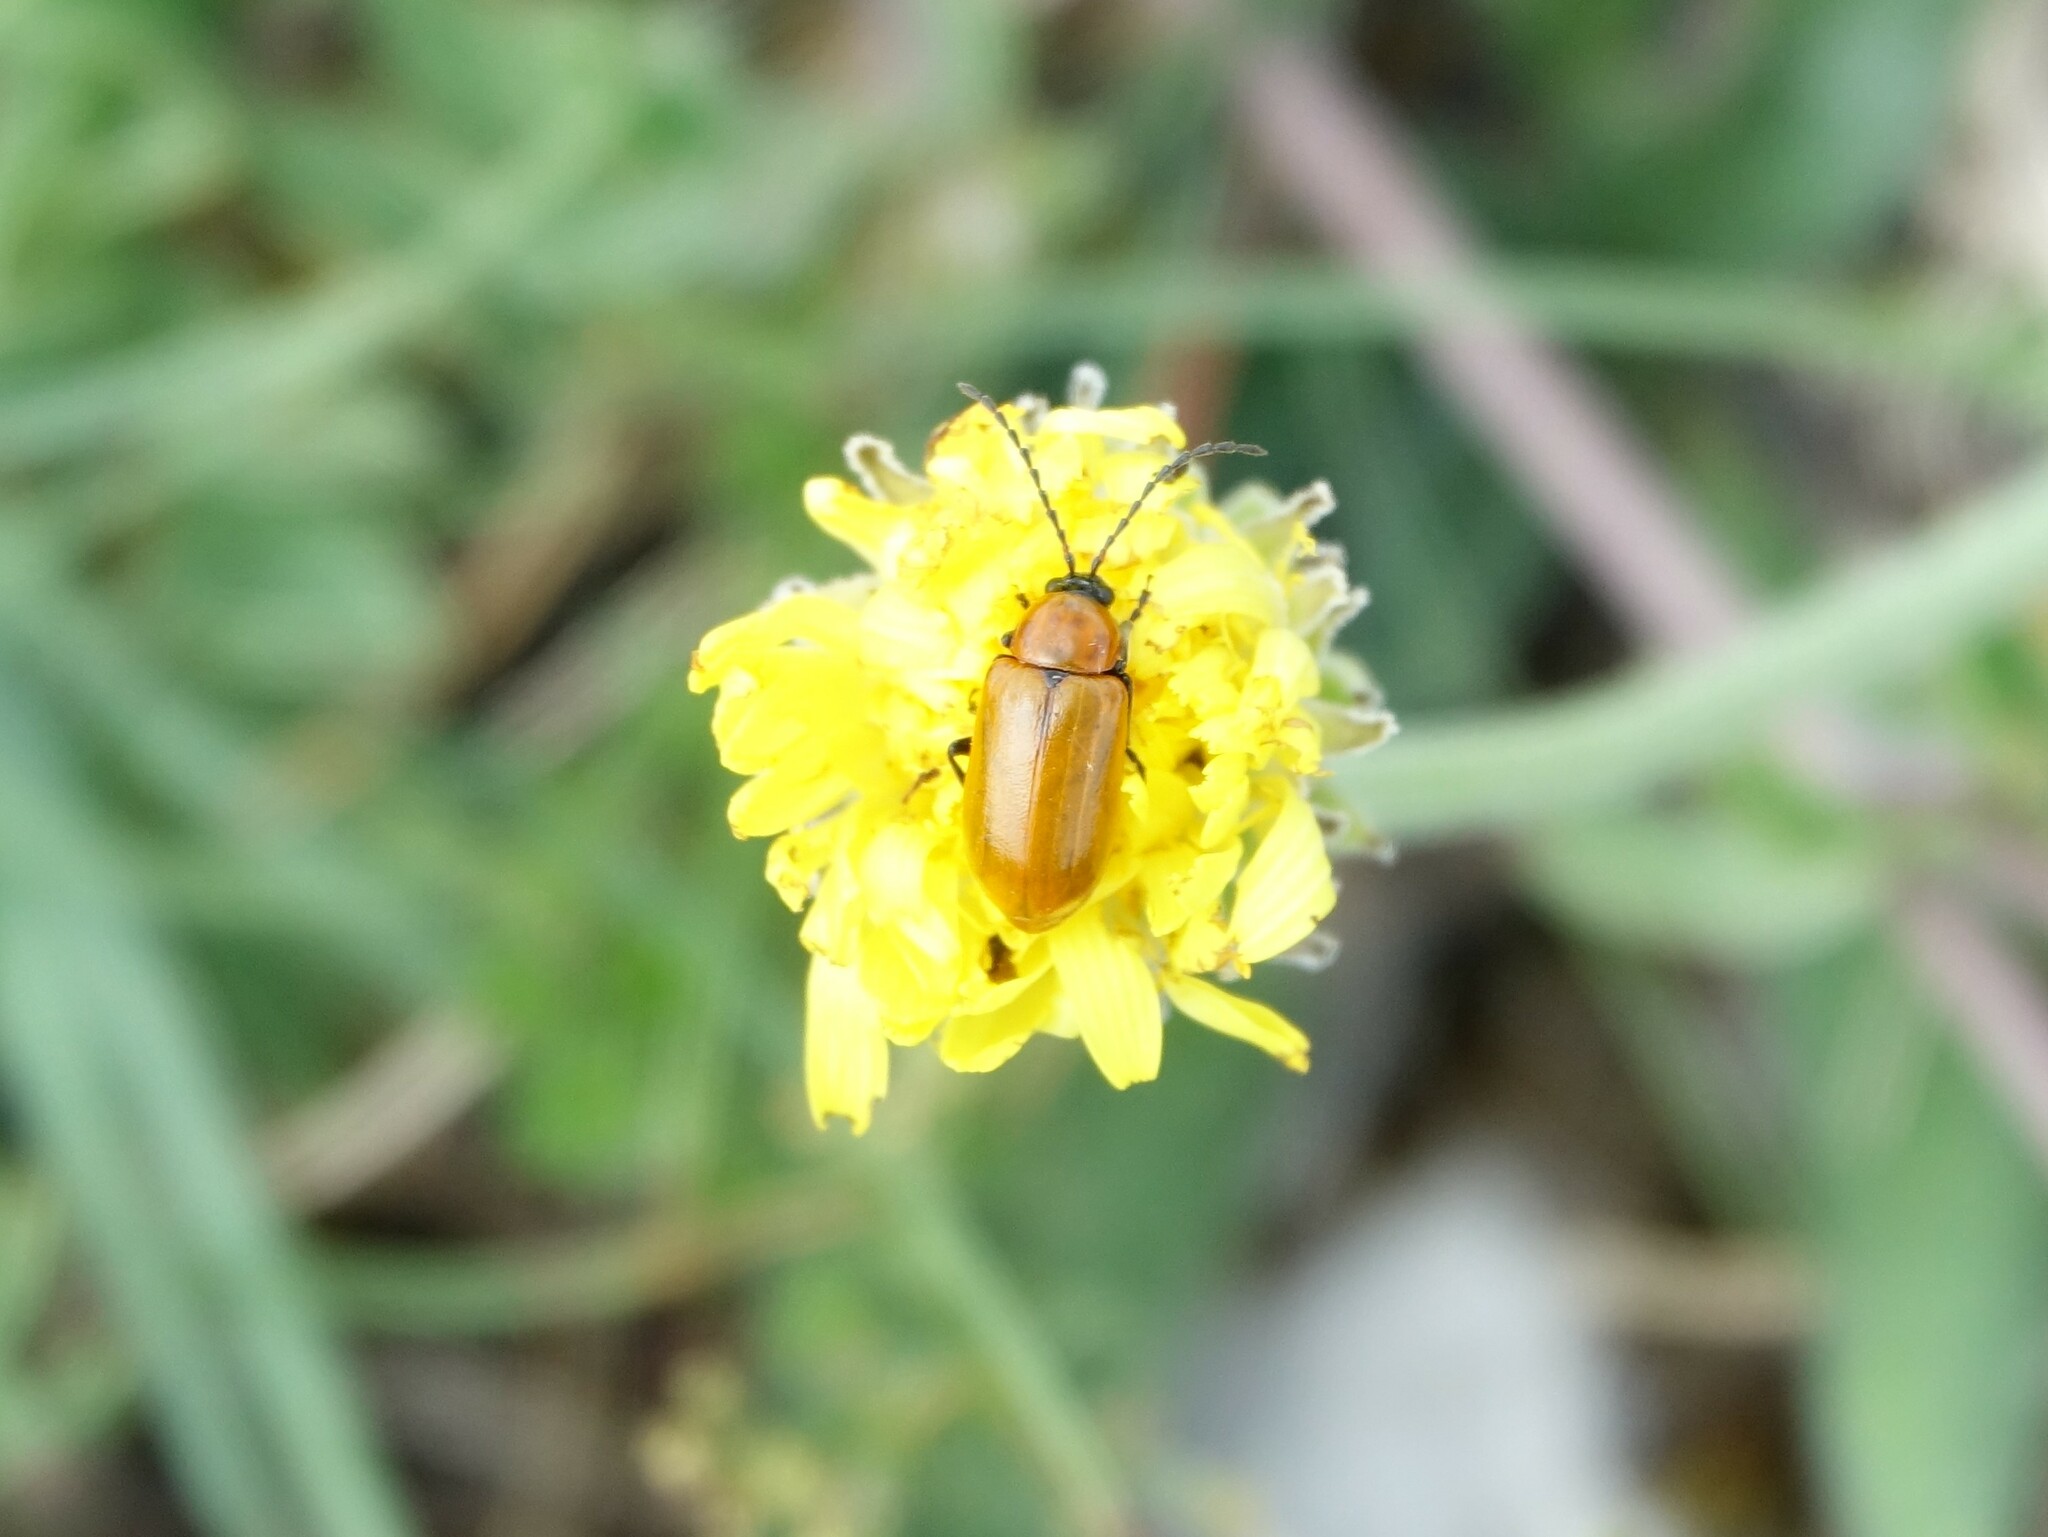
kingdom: Animalia
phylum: Arthropoda
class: Insecta
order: Coleoptera
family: Chrysomelidae
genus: Exosoma
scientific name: Exosoma lusitanicum
